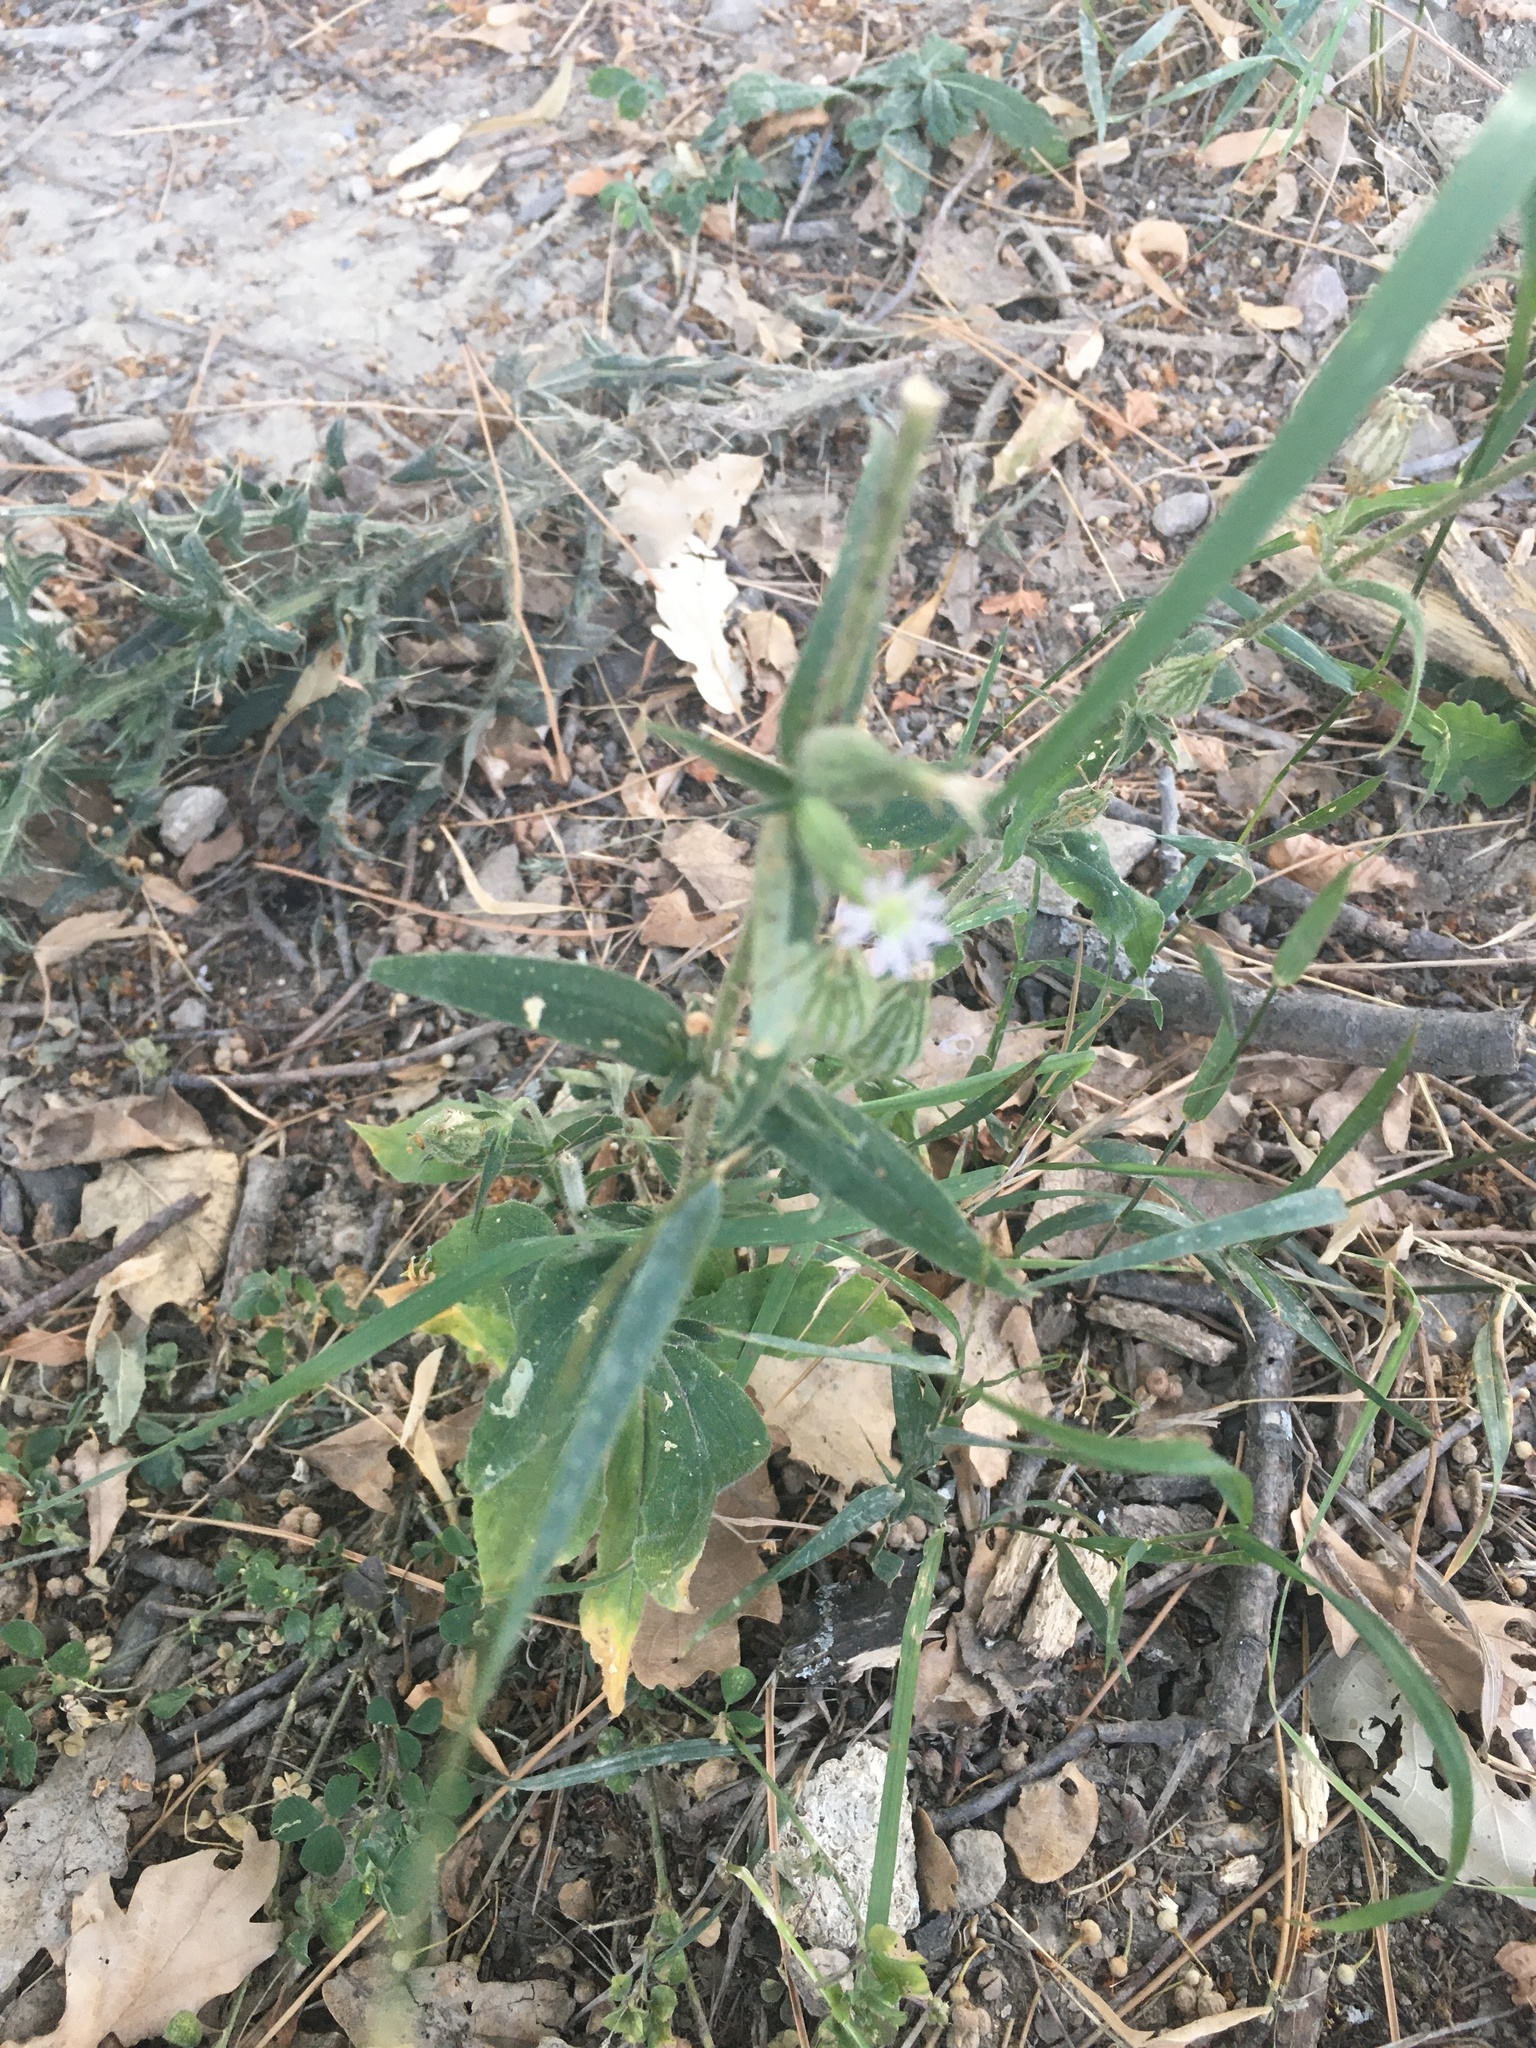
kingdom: Plantae
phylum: Tracheophyta
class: Magnoliopsida
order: Caryophyllales
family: Caryophyllaceae
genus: Silene
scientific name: Silene noctiflora
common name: Night-flowering catchfly
